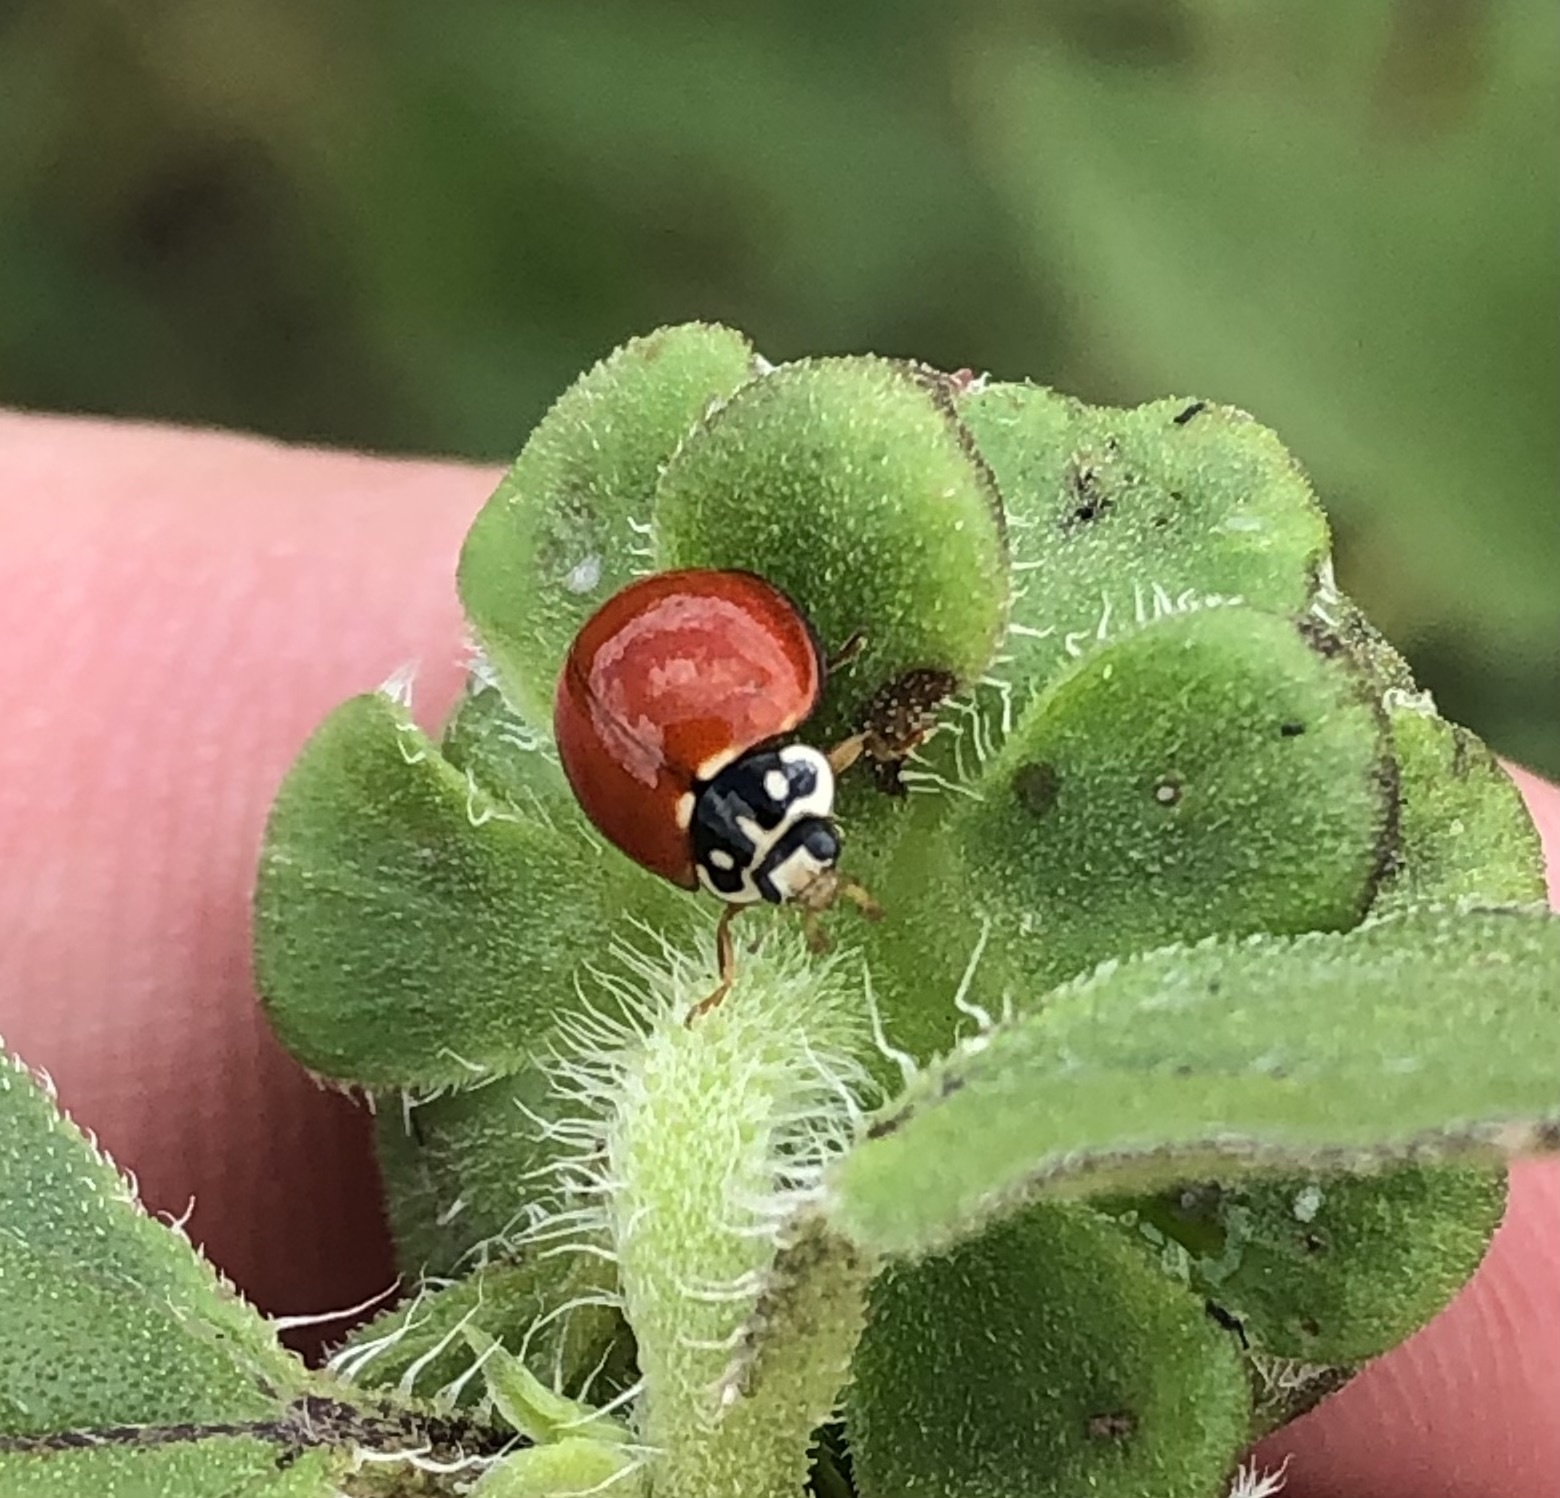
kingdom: Animalia
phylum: Arthropoda
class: Insecta
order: Coleoptera
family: Coccinellidae
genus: Cycloneda
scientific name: Cycloneda sanguinea
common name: Ladybird beetle
